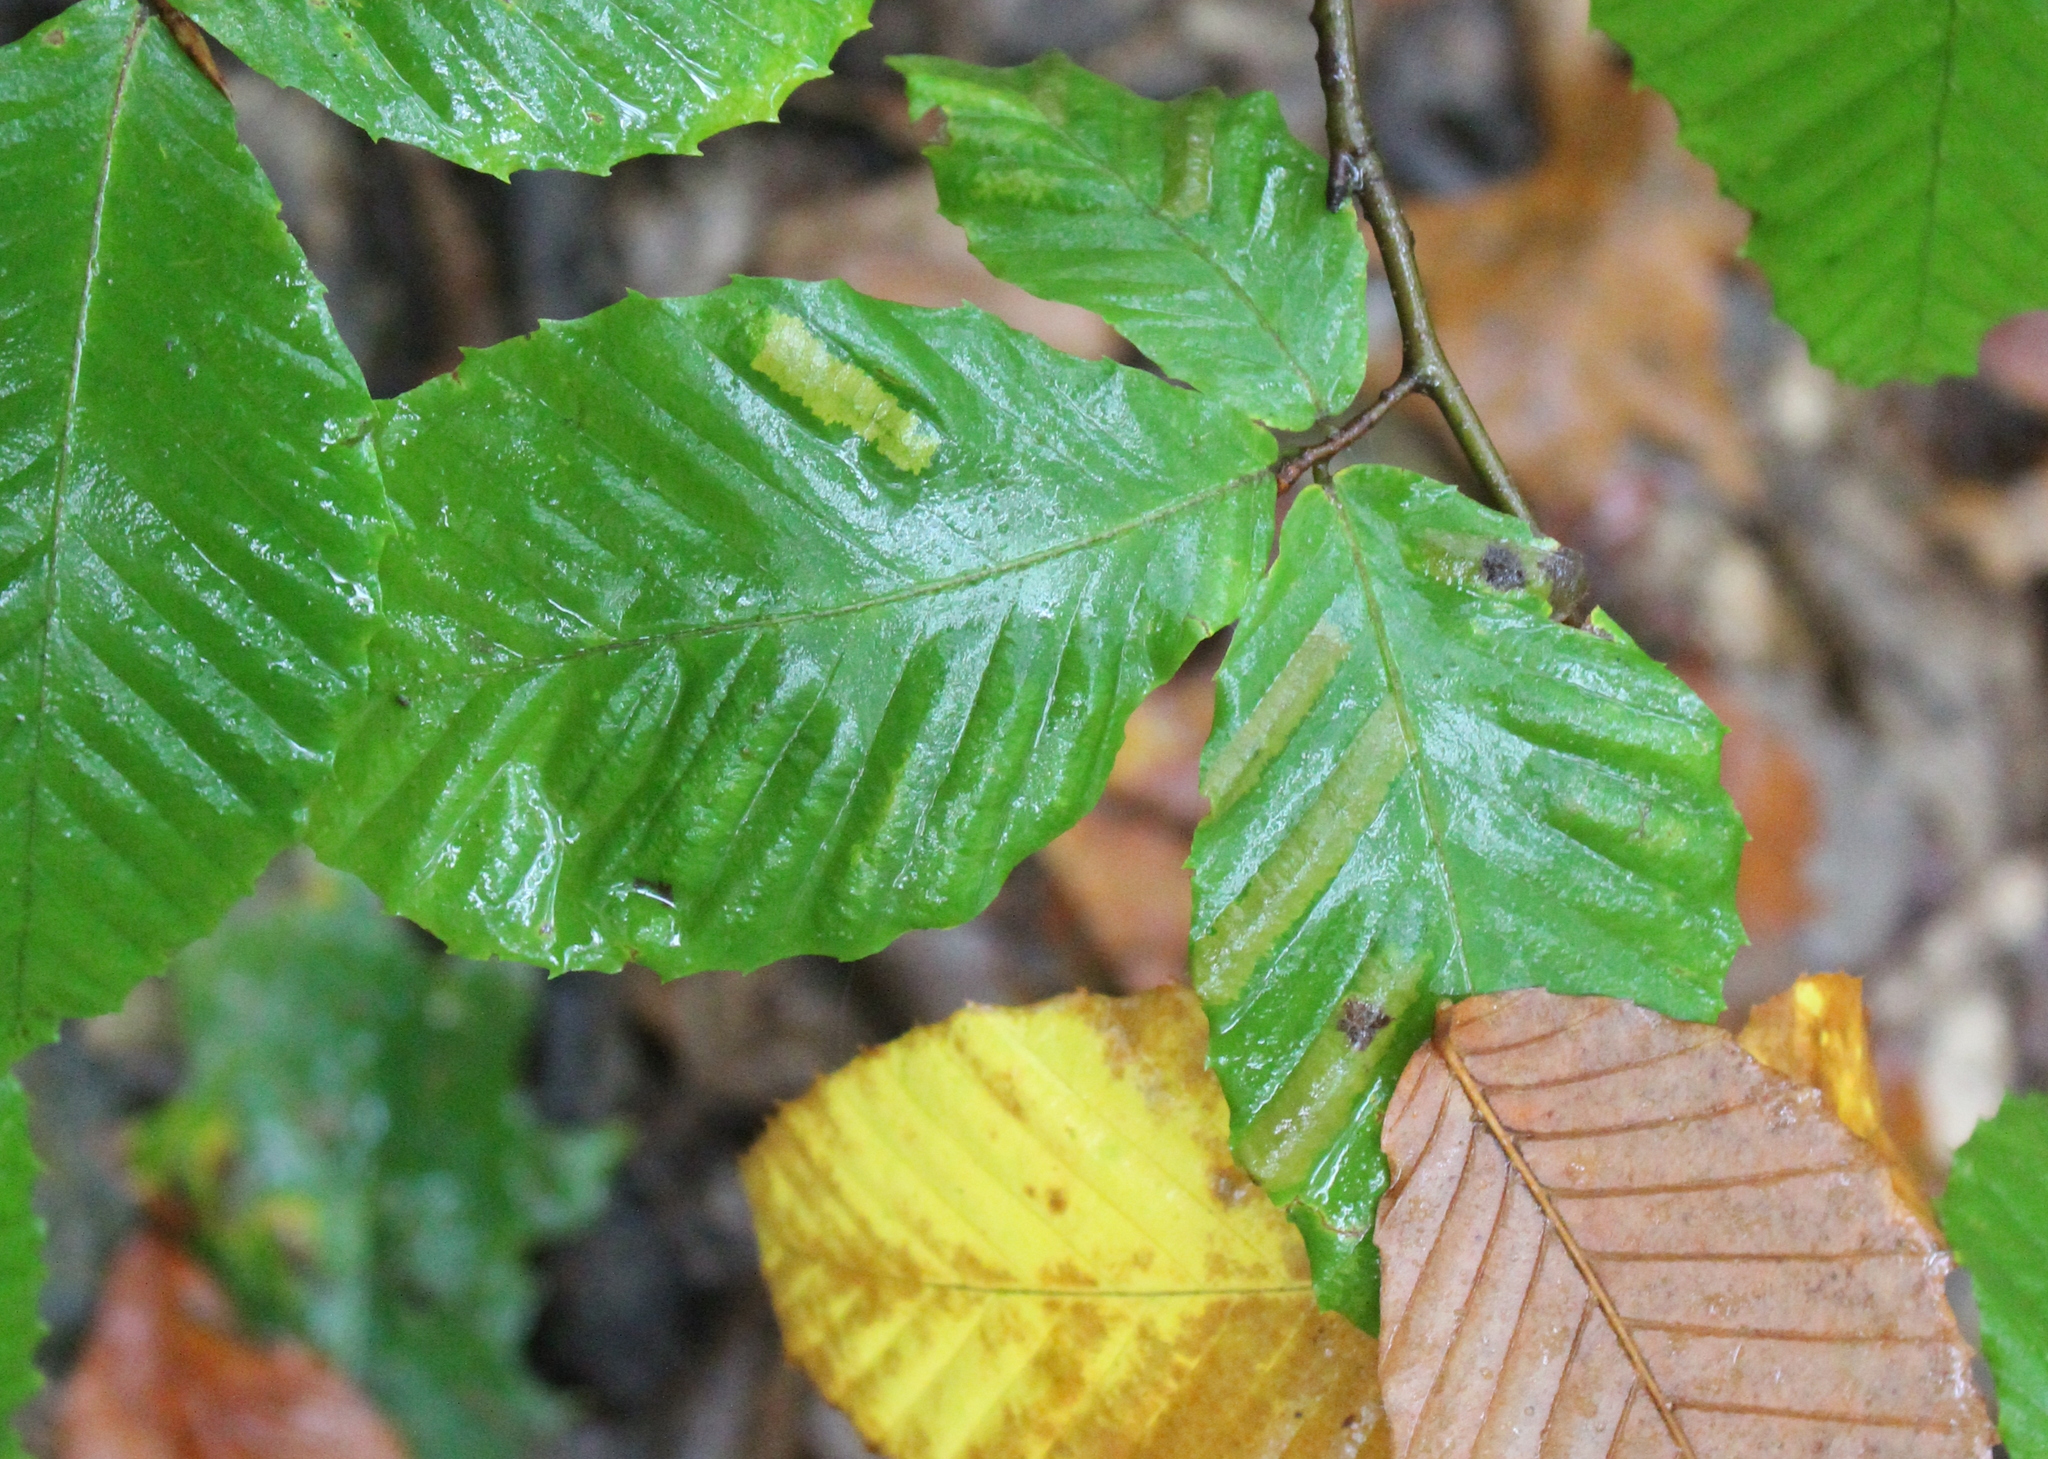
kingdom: Plantae
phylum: Tracheophyta
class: Magnoliopsida
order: Fagales
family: Fagaceae
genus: Fagus
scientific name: Fagus grandifolia
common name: American beech
